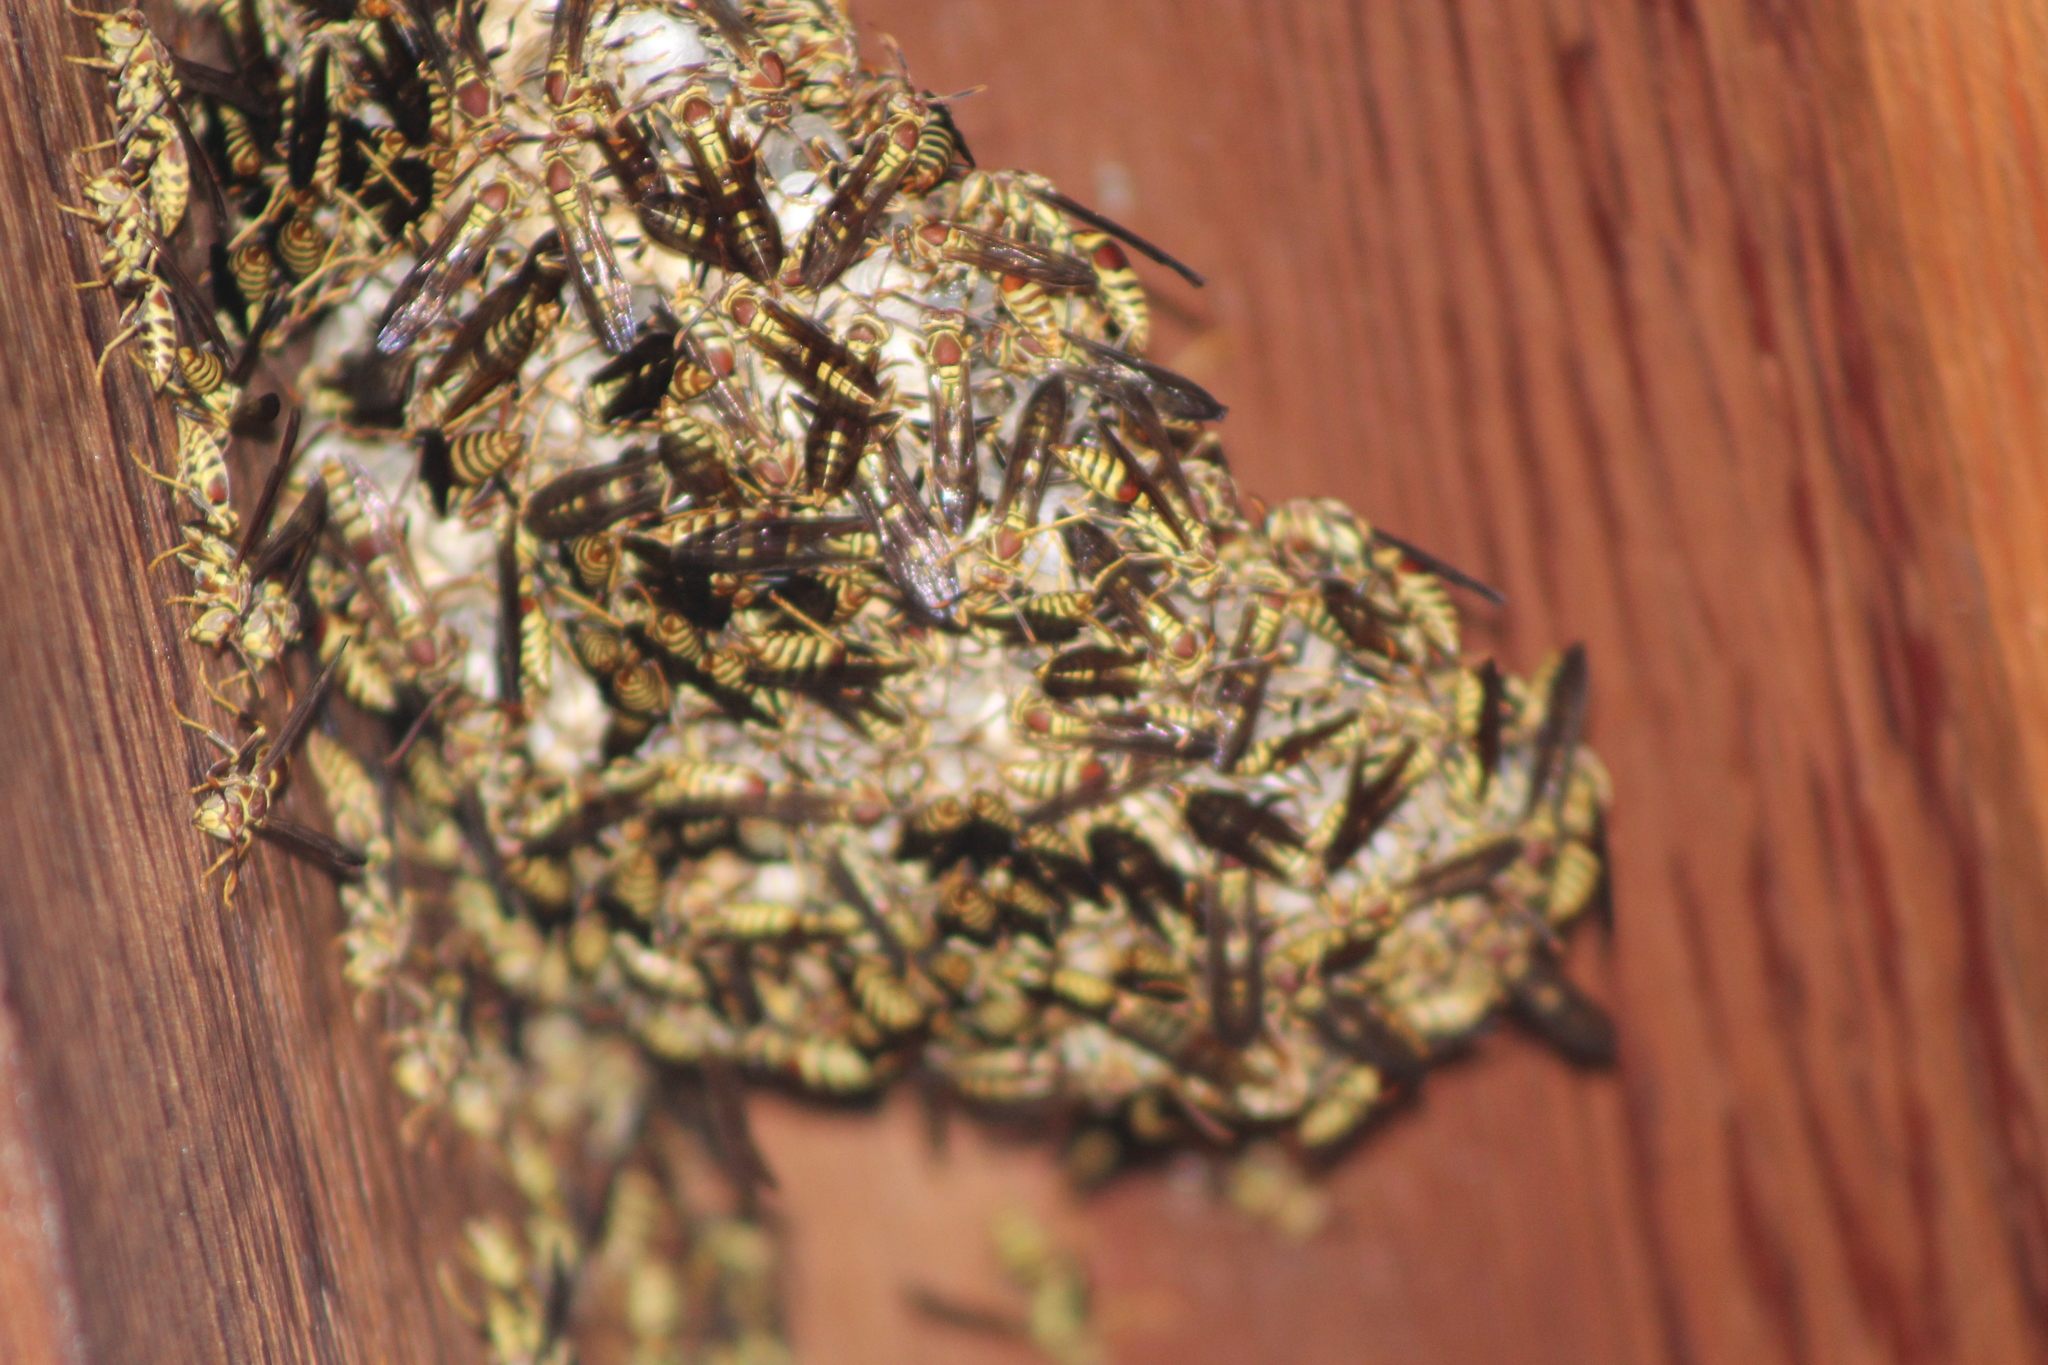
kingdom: Animalia
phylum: Arthropoda
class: Insecta
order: Hymenoptera
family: Eumenidae
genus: Polistes
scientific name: Polistes exclamans
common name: Paper wasp
